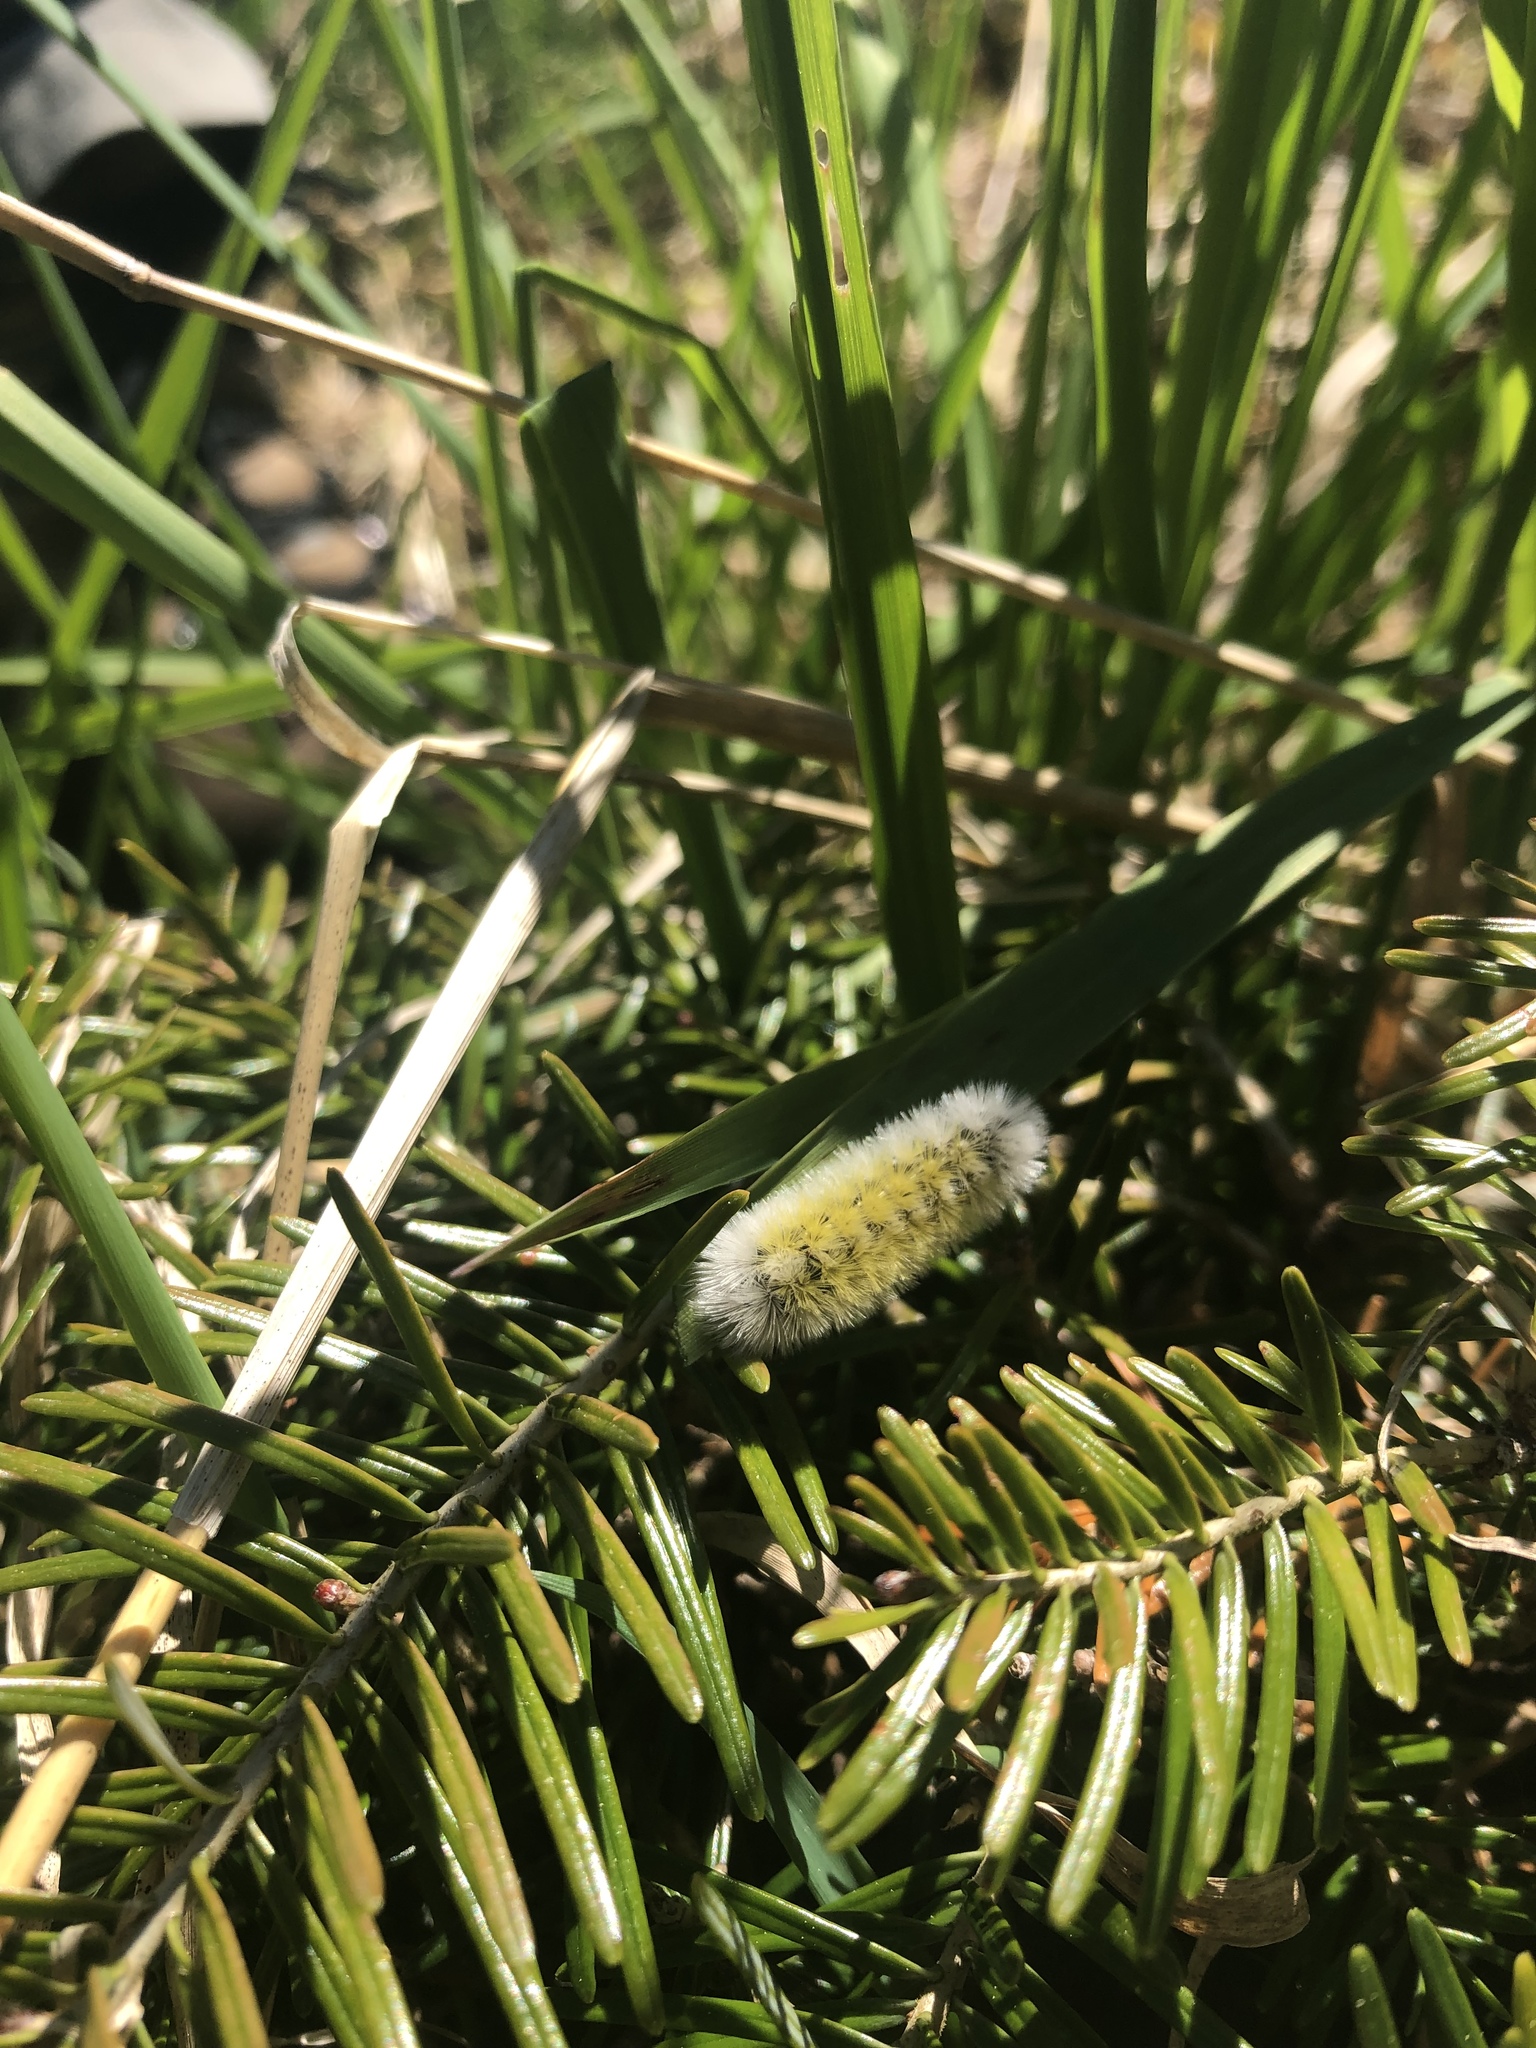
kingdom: Animalia
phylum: Arthropoda
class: Insecta
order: Lepidoptera
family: Erebidae
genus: Ctenucha
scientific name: Ctenucha virginica
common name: Virginia ctenucha moth
